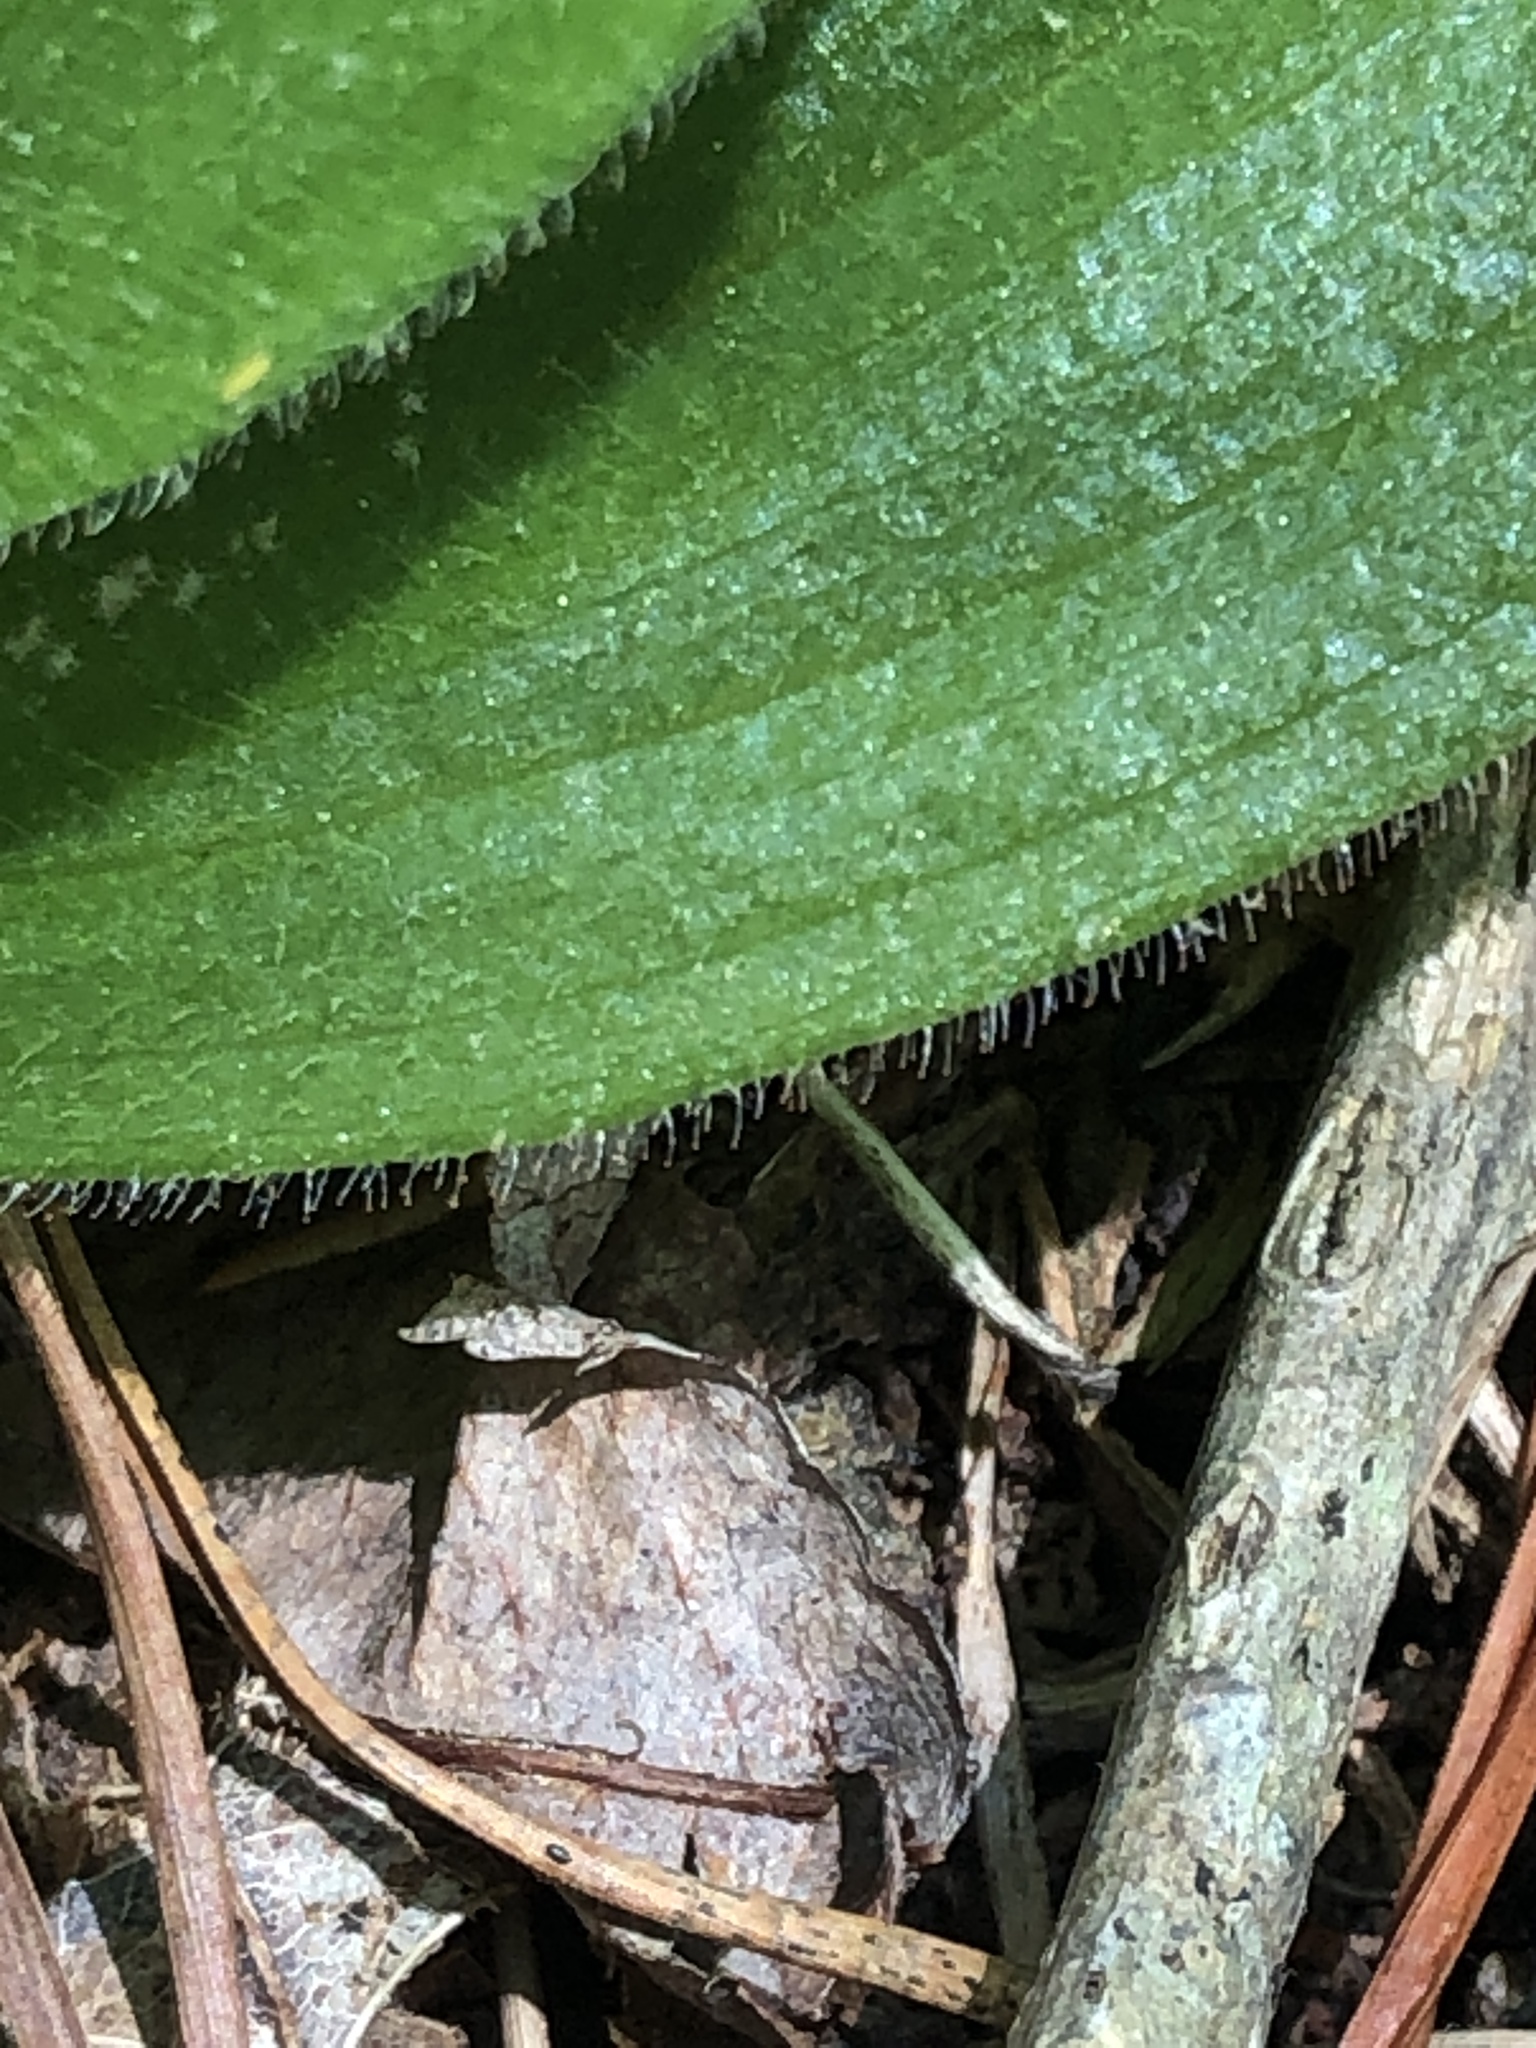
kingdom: Plantae
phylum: Tracheophyta
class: Liliopsida
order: Asparagales
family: Orchidaceae
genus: Cypripedium
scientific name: Cypripedium acaule
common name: Pink lady's-slipper
